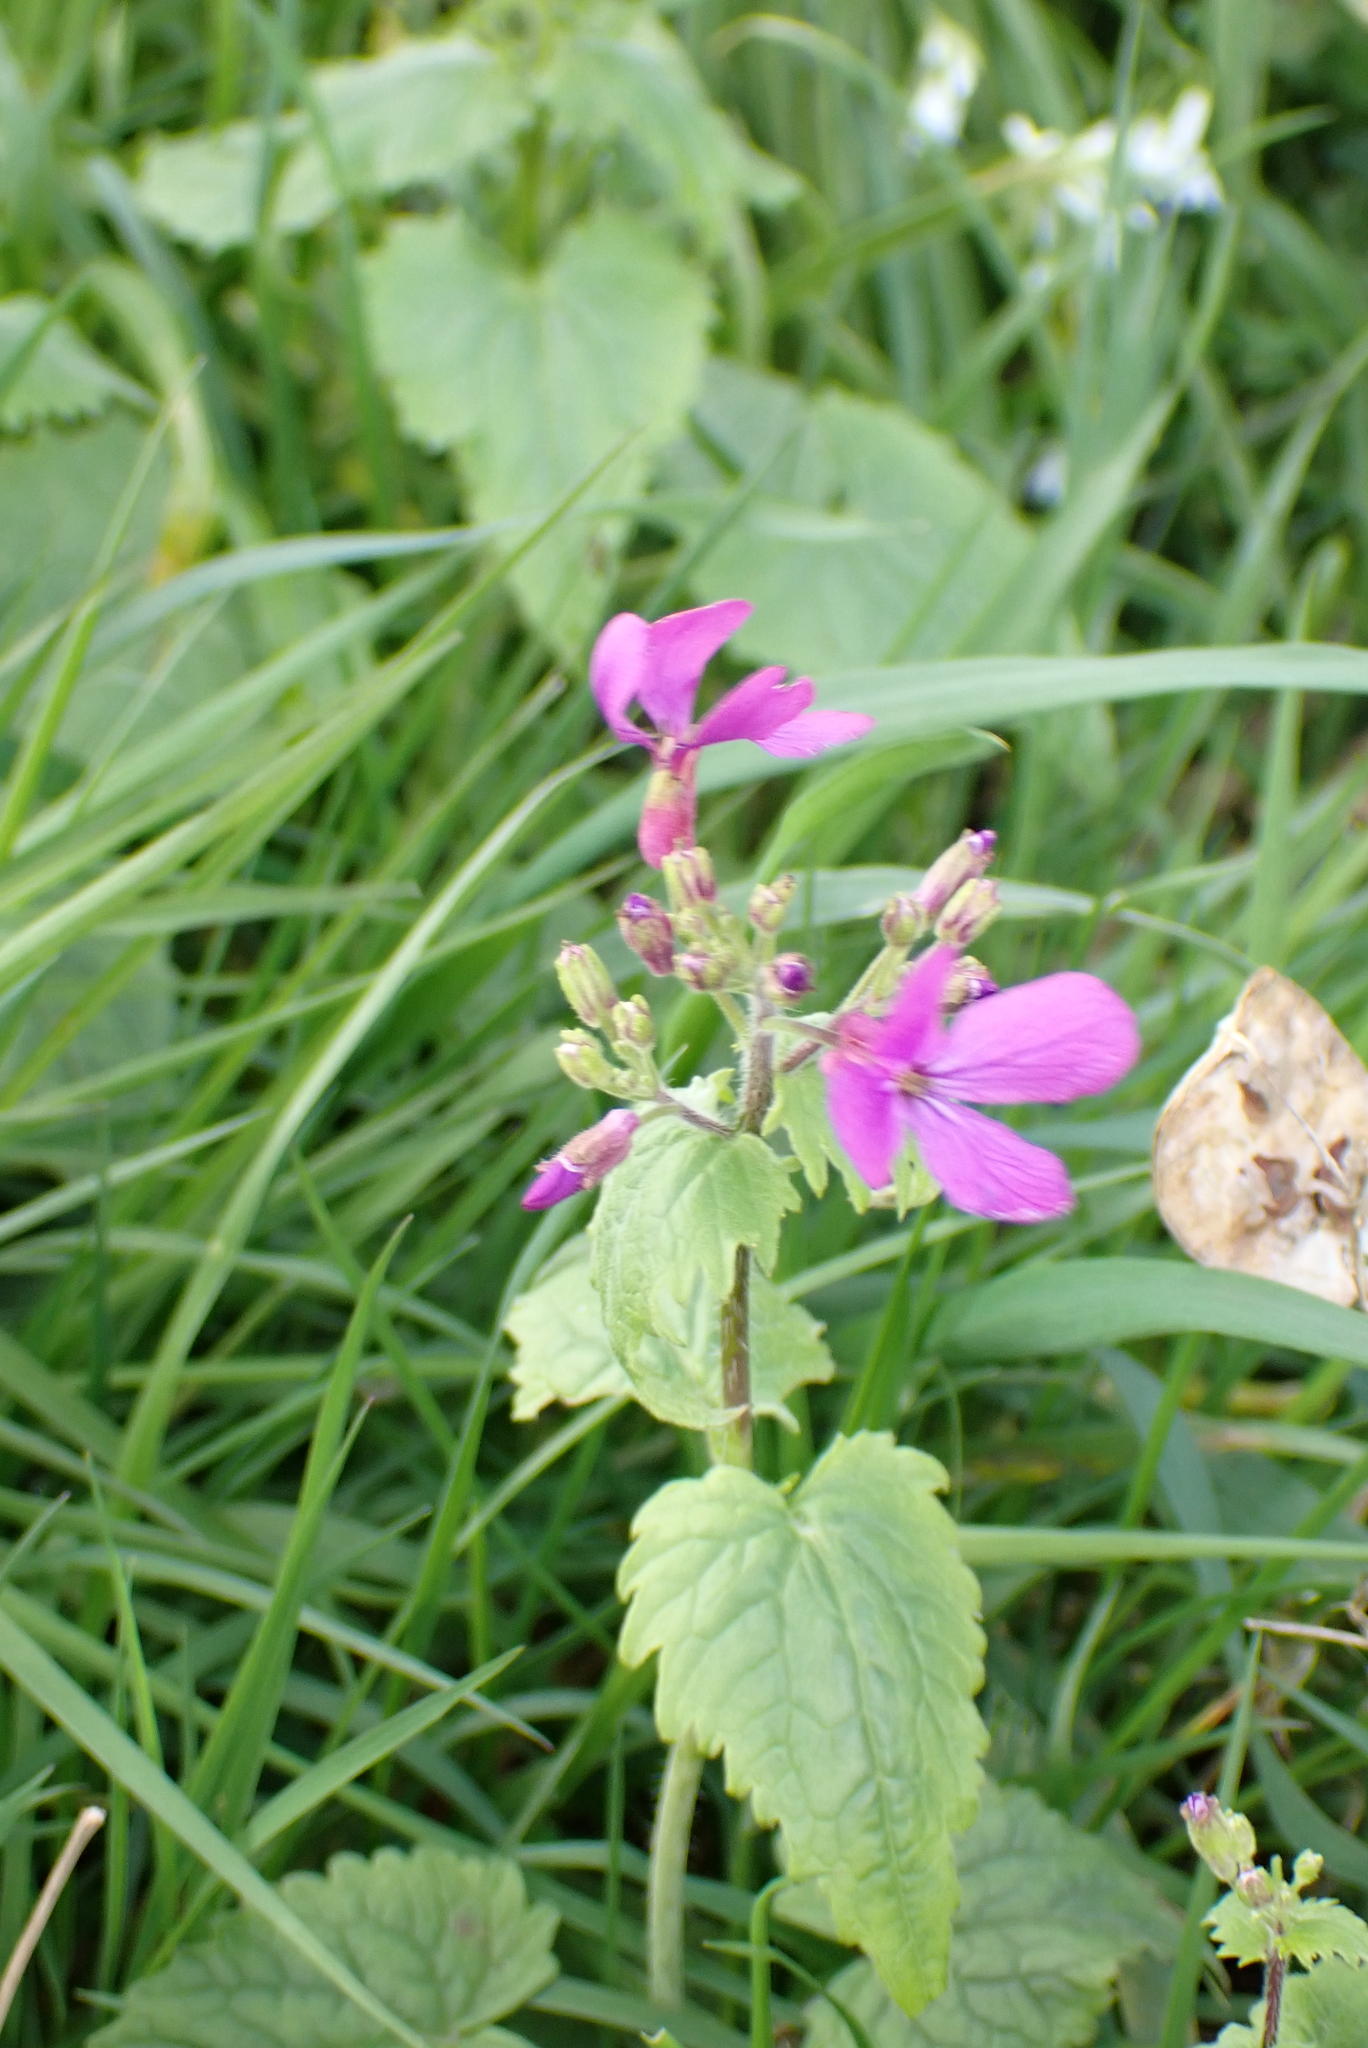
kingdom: Plantae
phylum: Tracheophyta
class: Magnoliopsida
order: Brassicales
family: Brassicaceae
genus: Lunaria
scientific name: Lunaria annua
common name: Honesty
